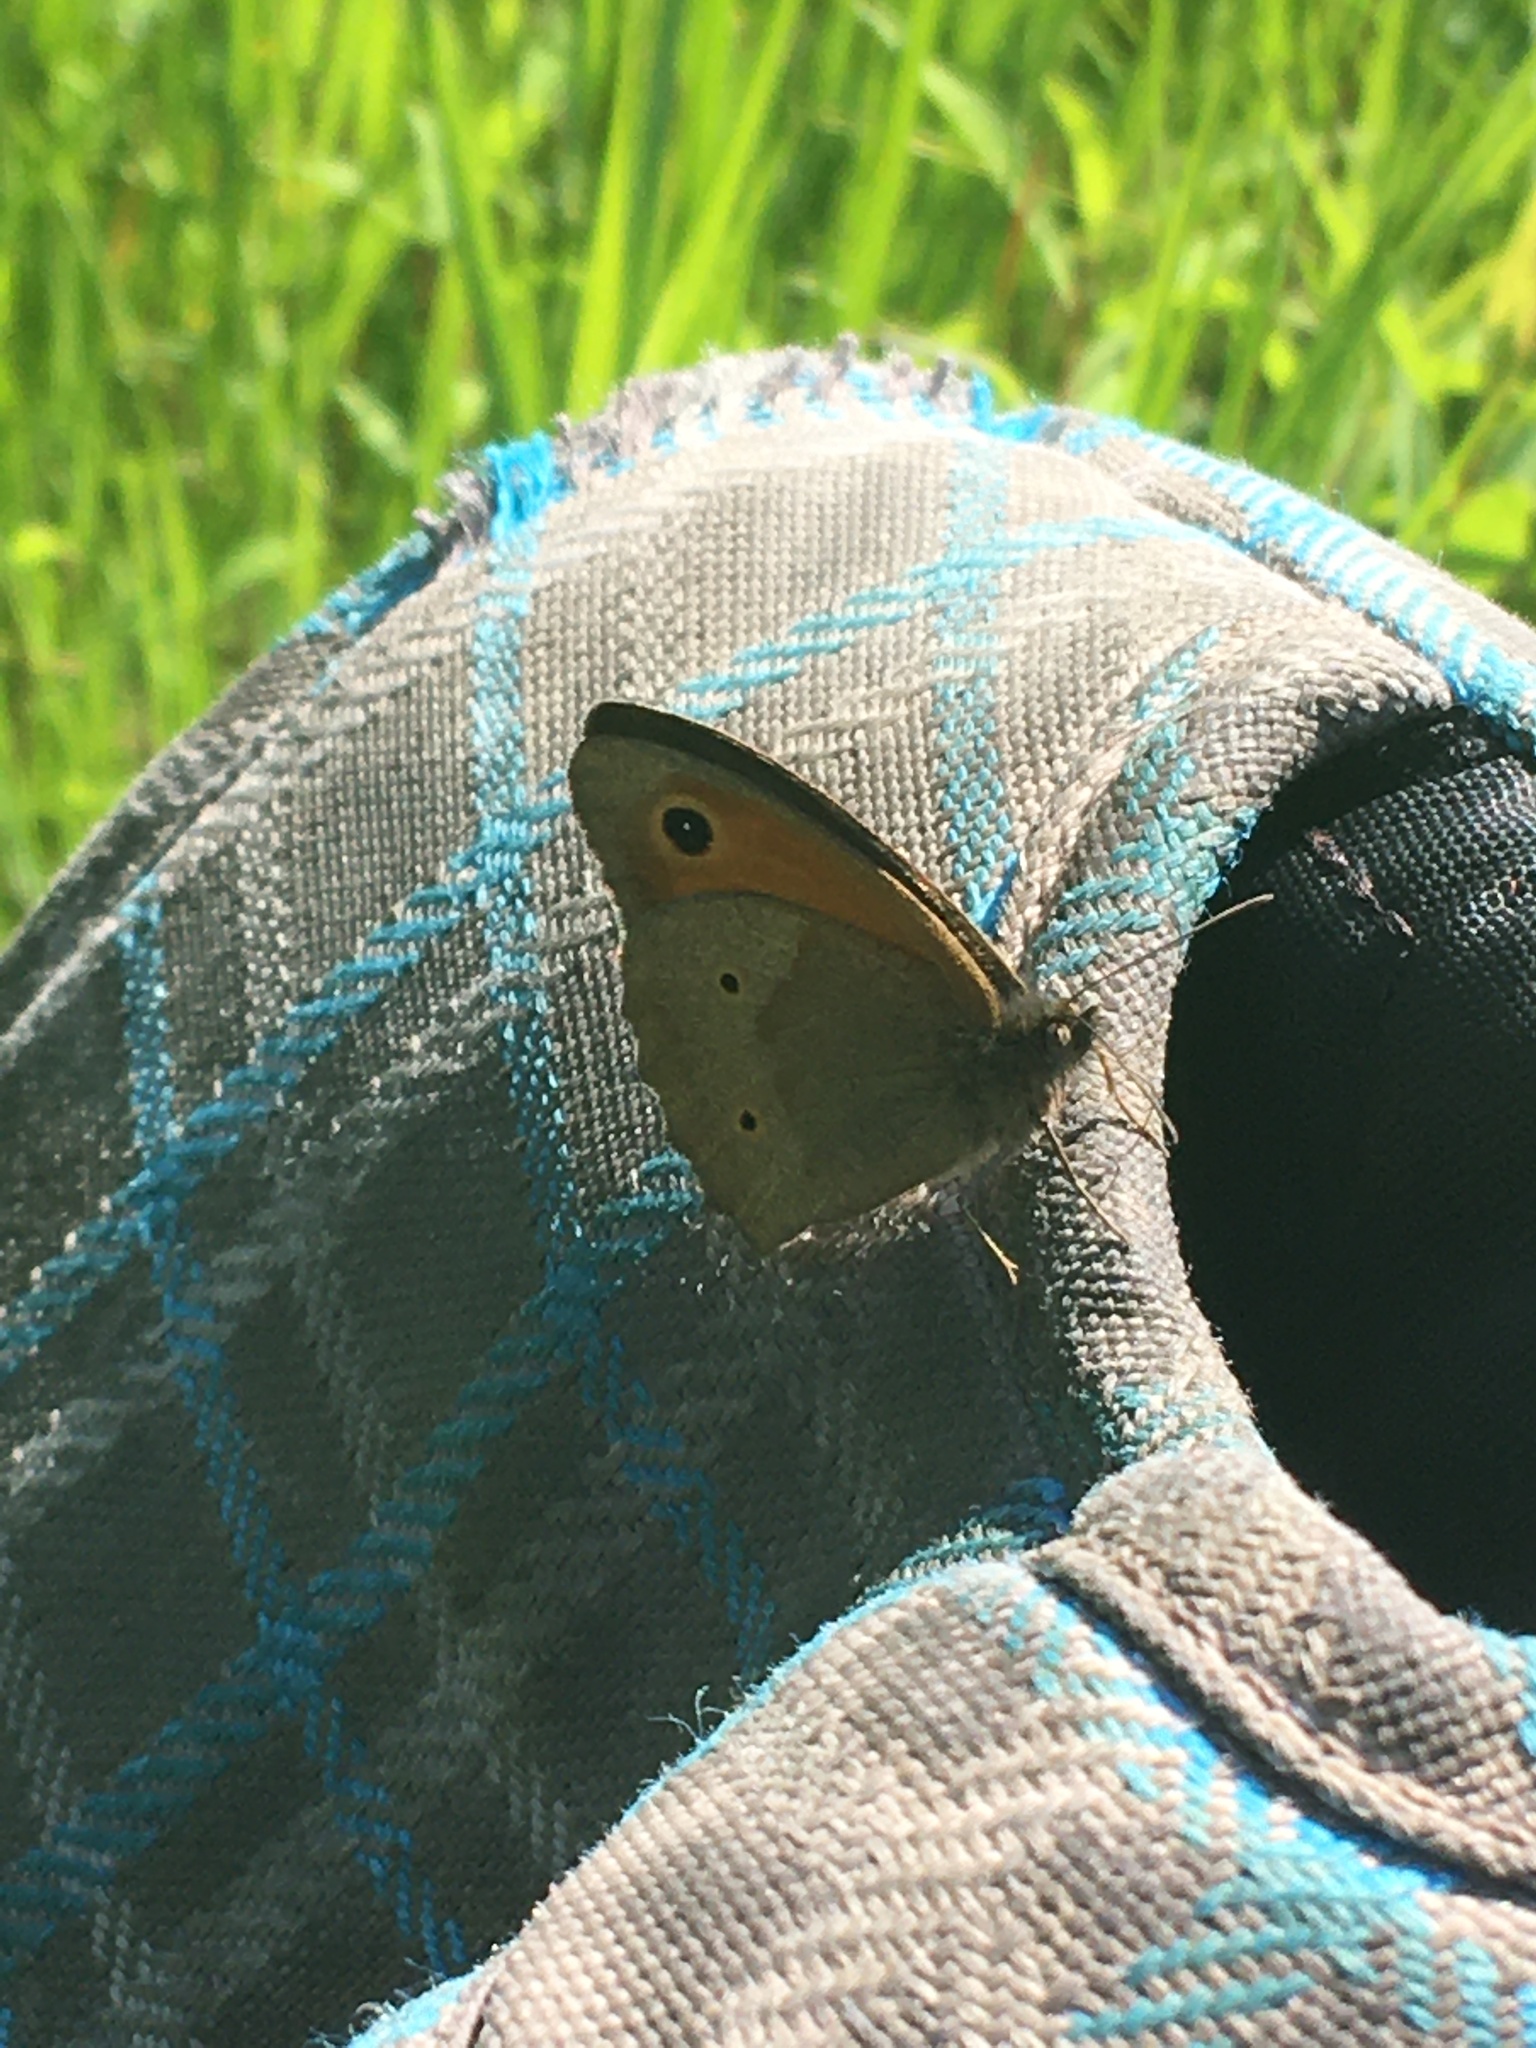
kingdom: Animalia
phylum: Arthropoda
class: Insecta
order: Lepidoptera
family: Nymphalidae
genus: Maniola
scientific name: Maniola jurtina
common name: Meadow brown
